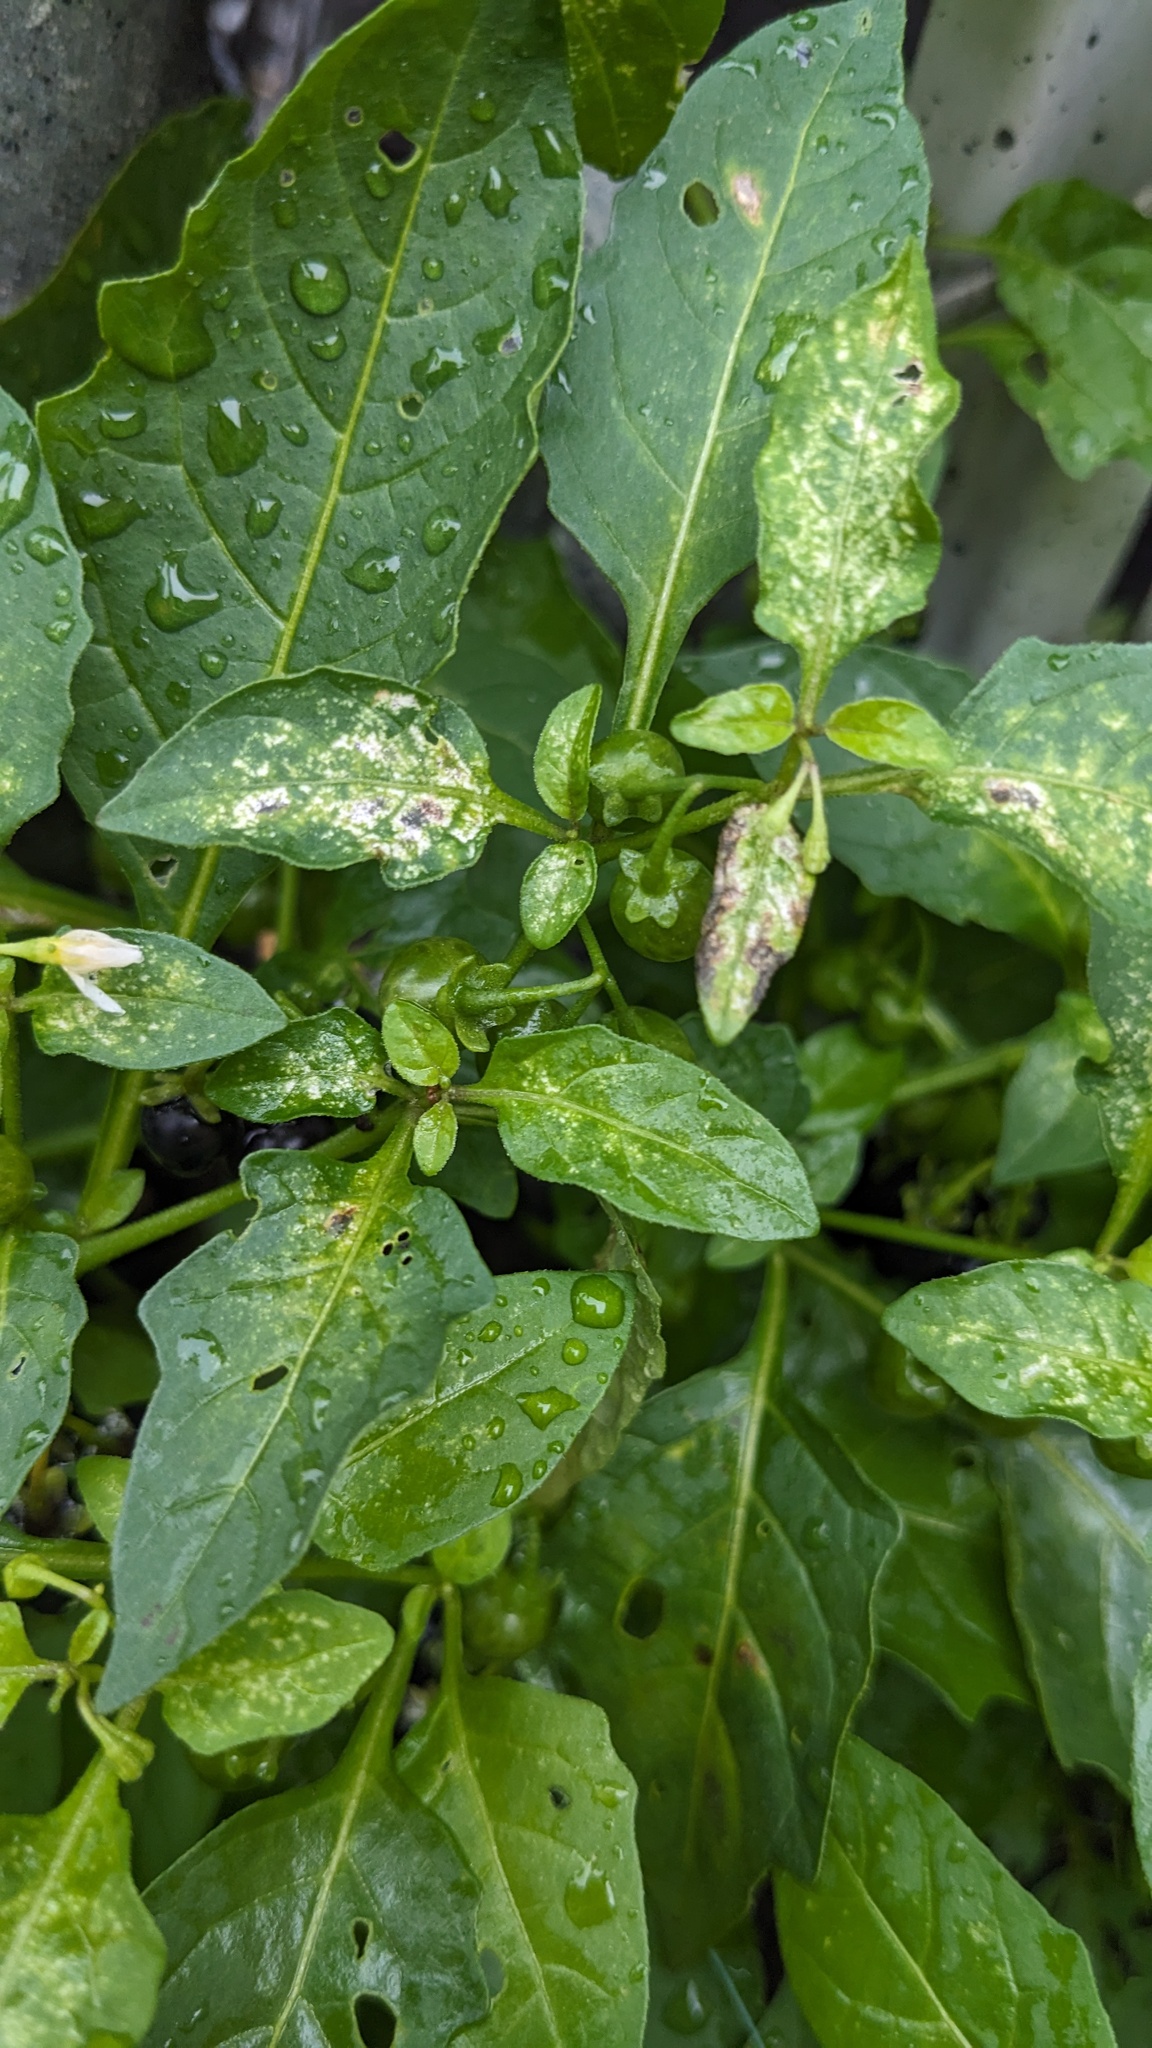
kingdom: Plantae
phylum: Tracheophyta
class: Magnoliopsida
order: Solanales
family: Solanaceae
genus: Solanum
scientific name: Solanum emulans
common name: Eastern black nightshade
